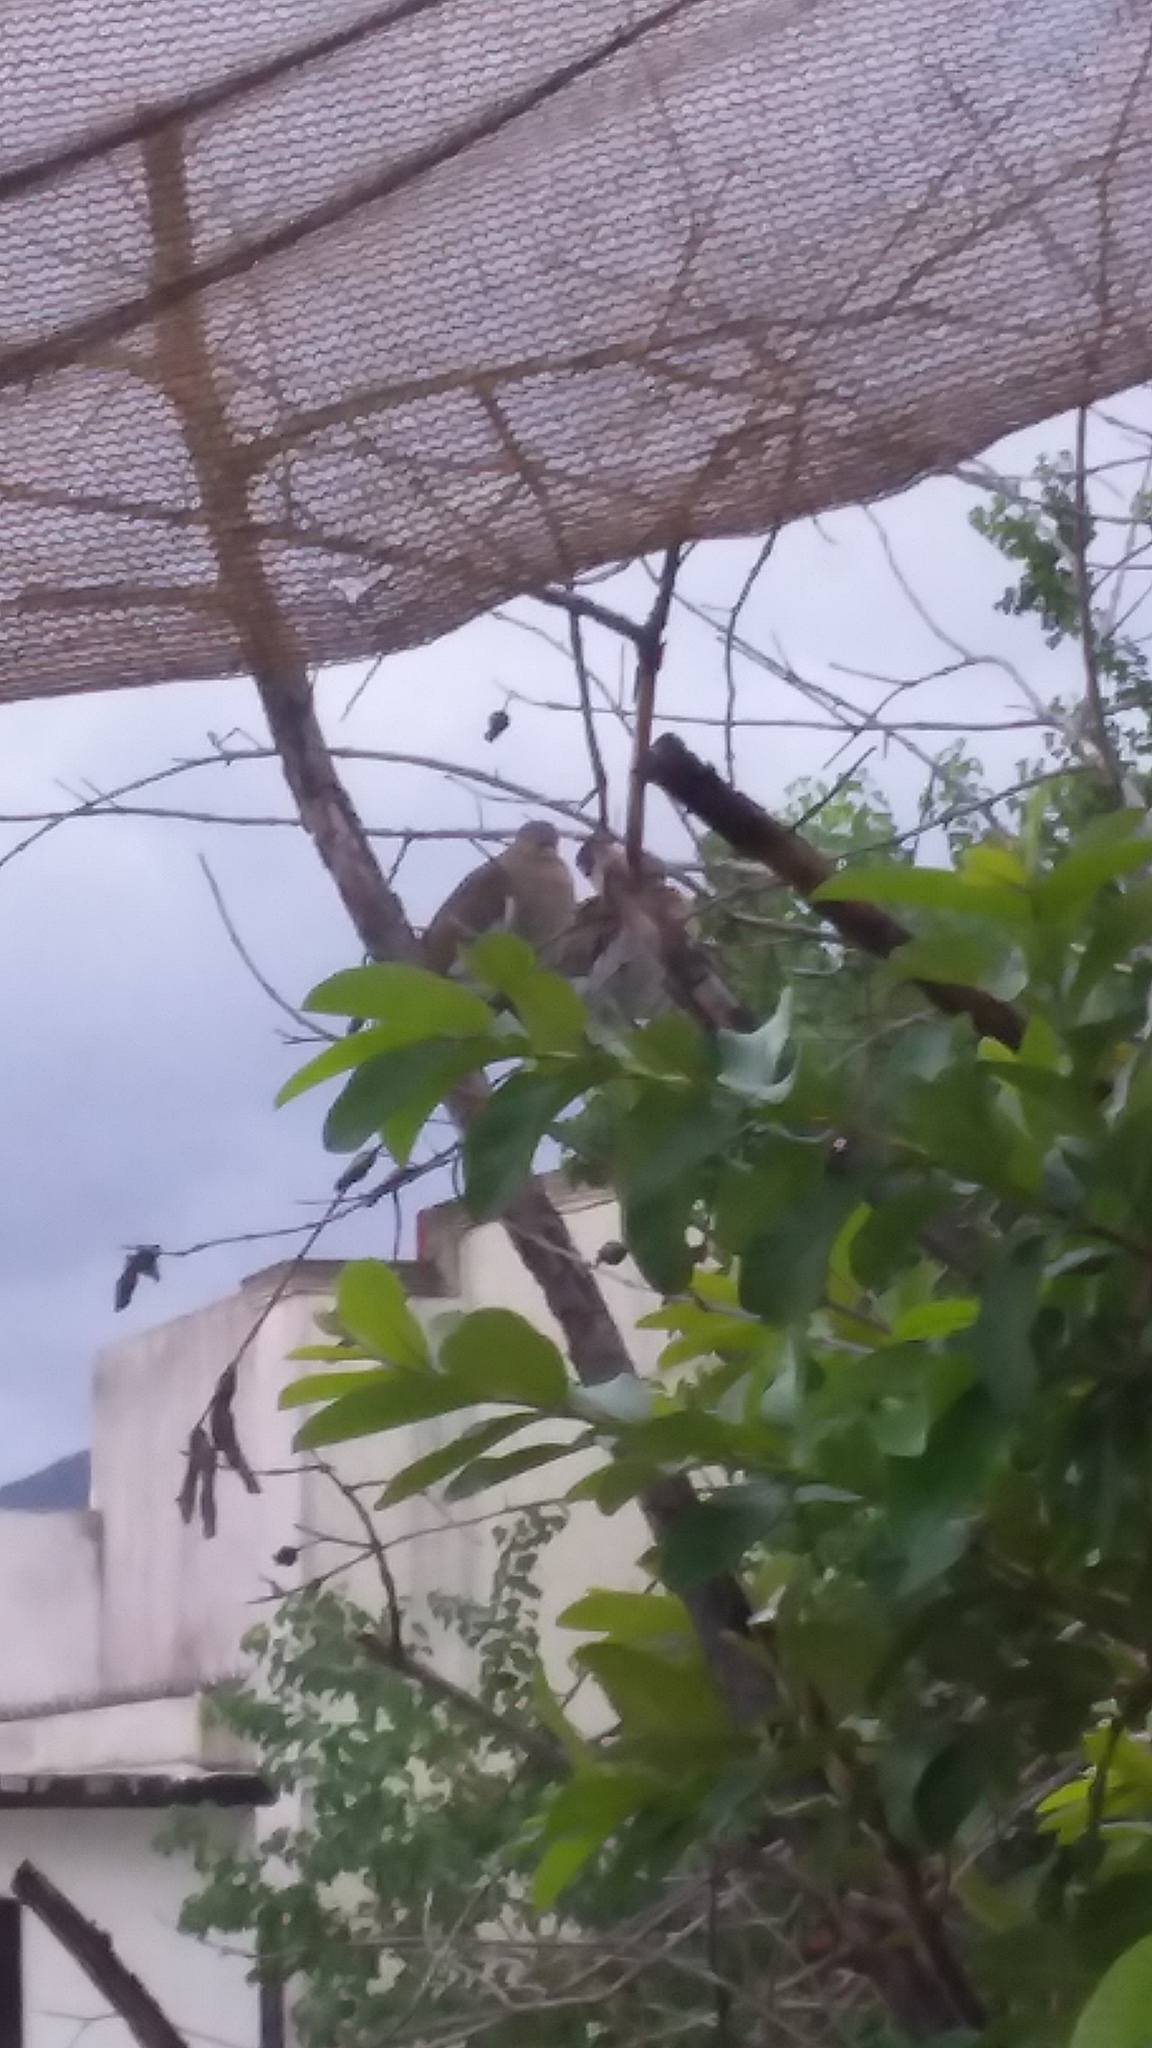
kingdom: Animalia
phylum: Chordata
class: Aves
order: Columbiformes
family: Columbidae
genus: Zenaida
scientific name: Zenaida asiatica
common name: White-winged dove
